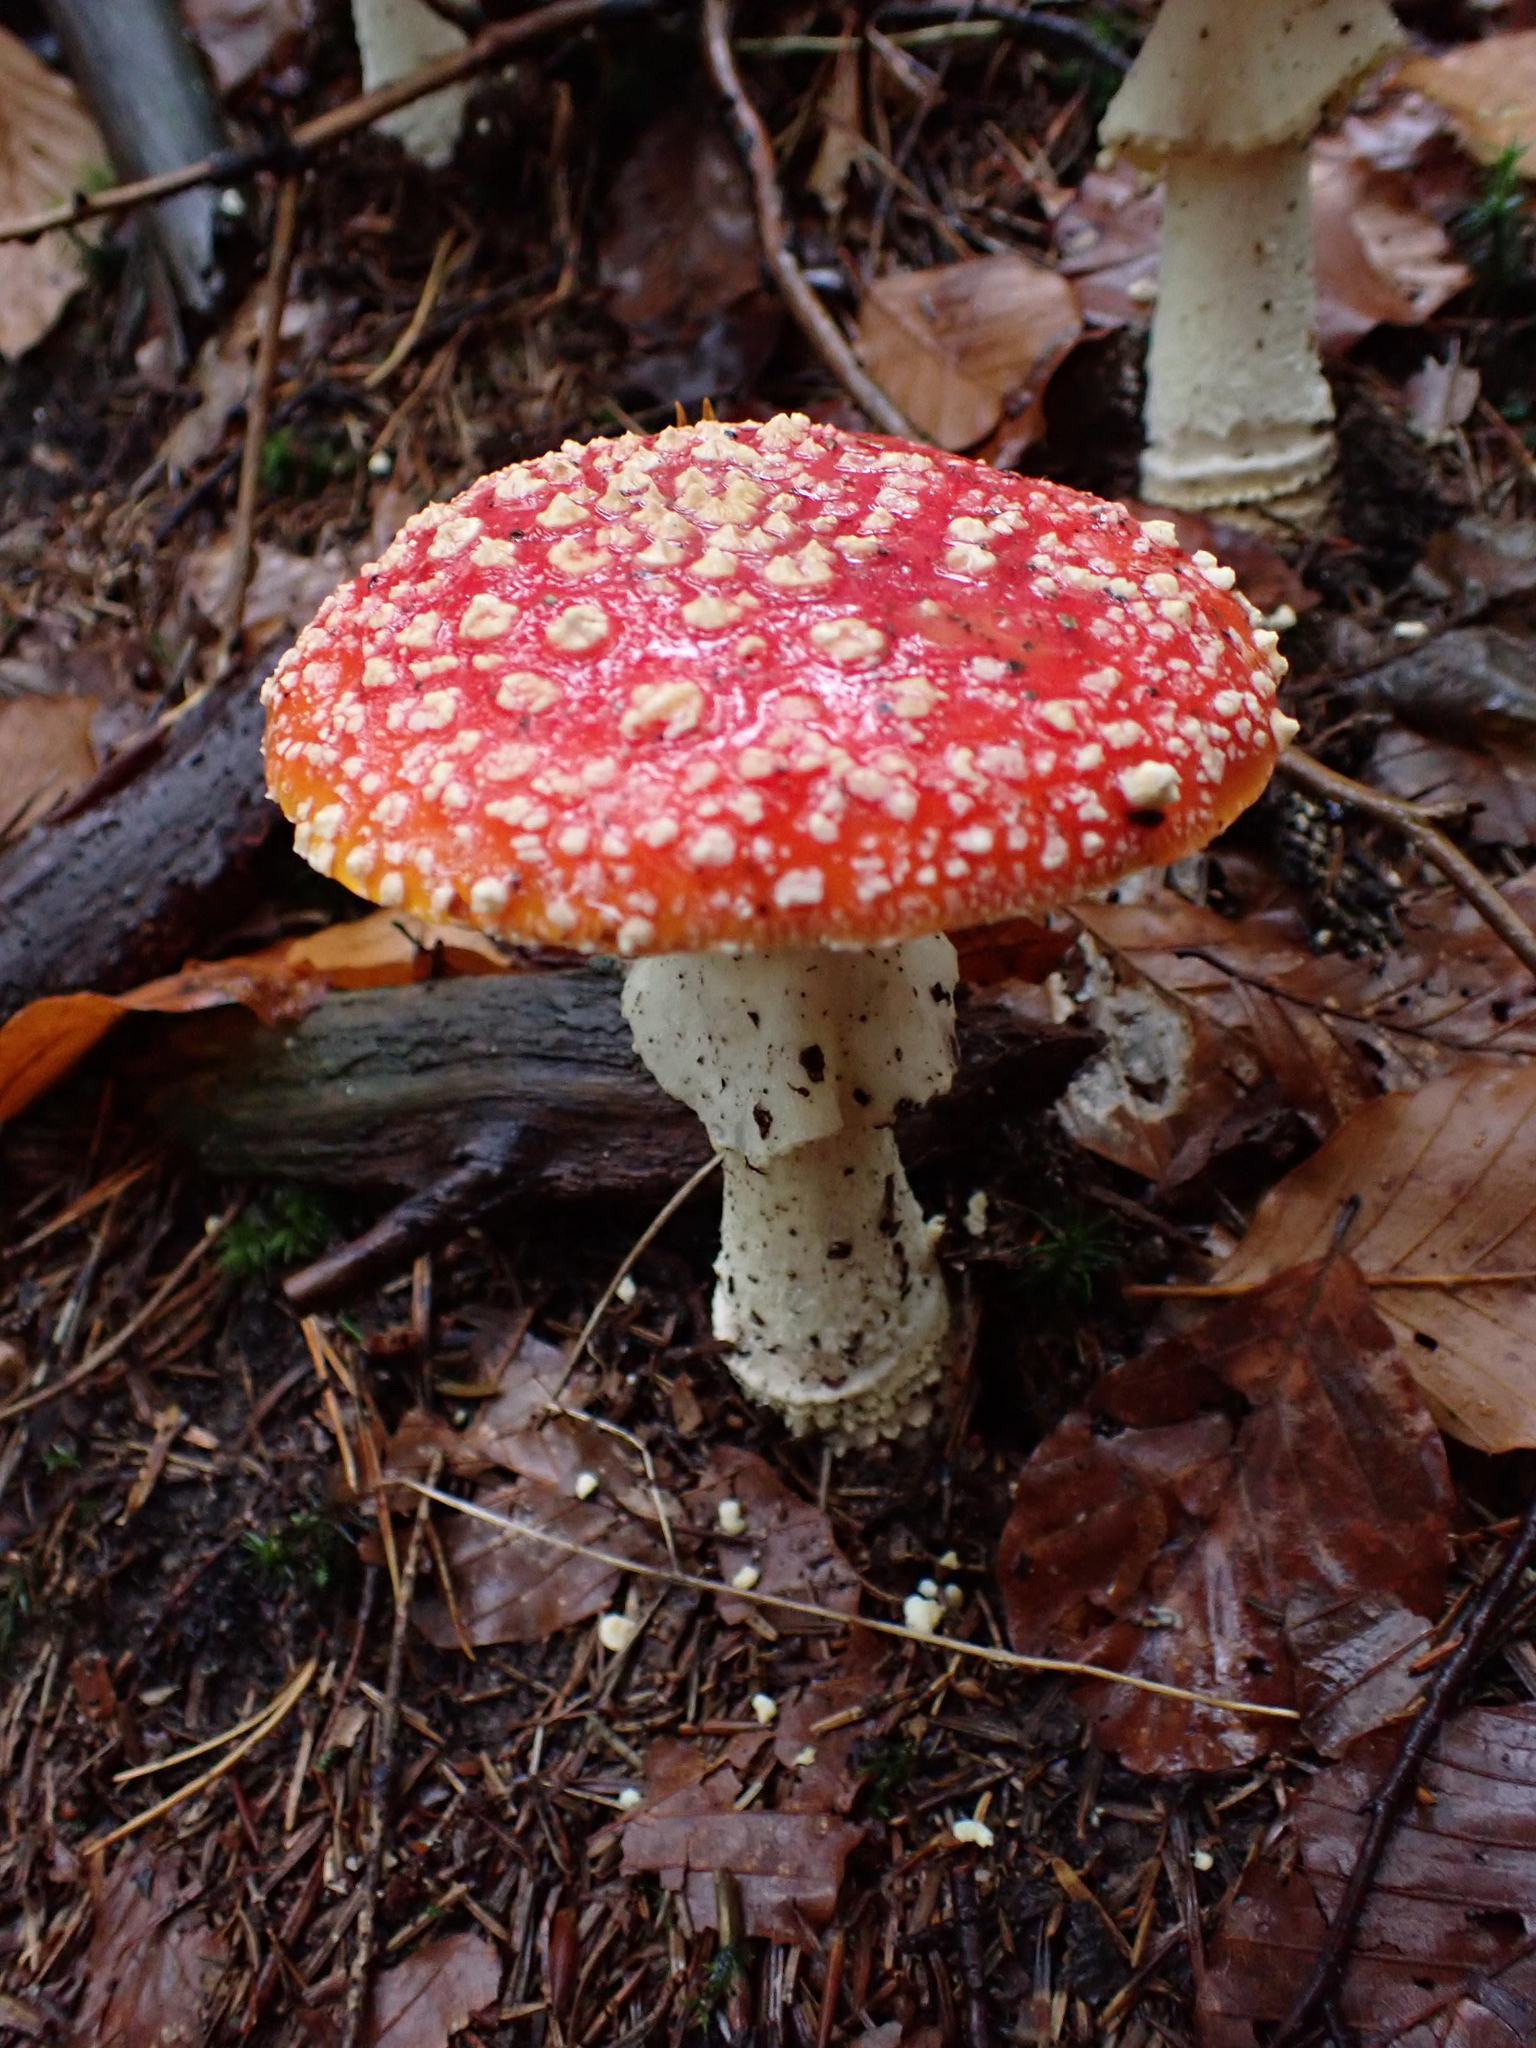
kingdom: Fungi
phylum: Basidiomycota
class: Agaricomycetes
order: Agaricales
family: Amanitaceae
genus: Amanita
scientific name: Amanita muscaria
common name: Fly agaric
